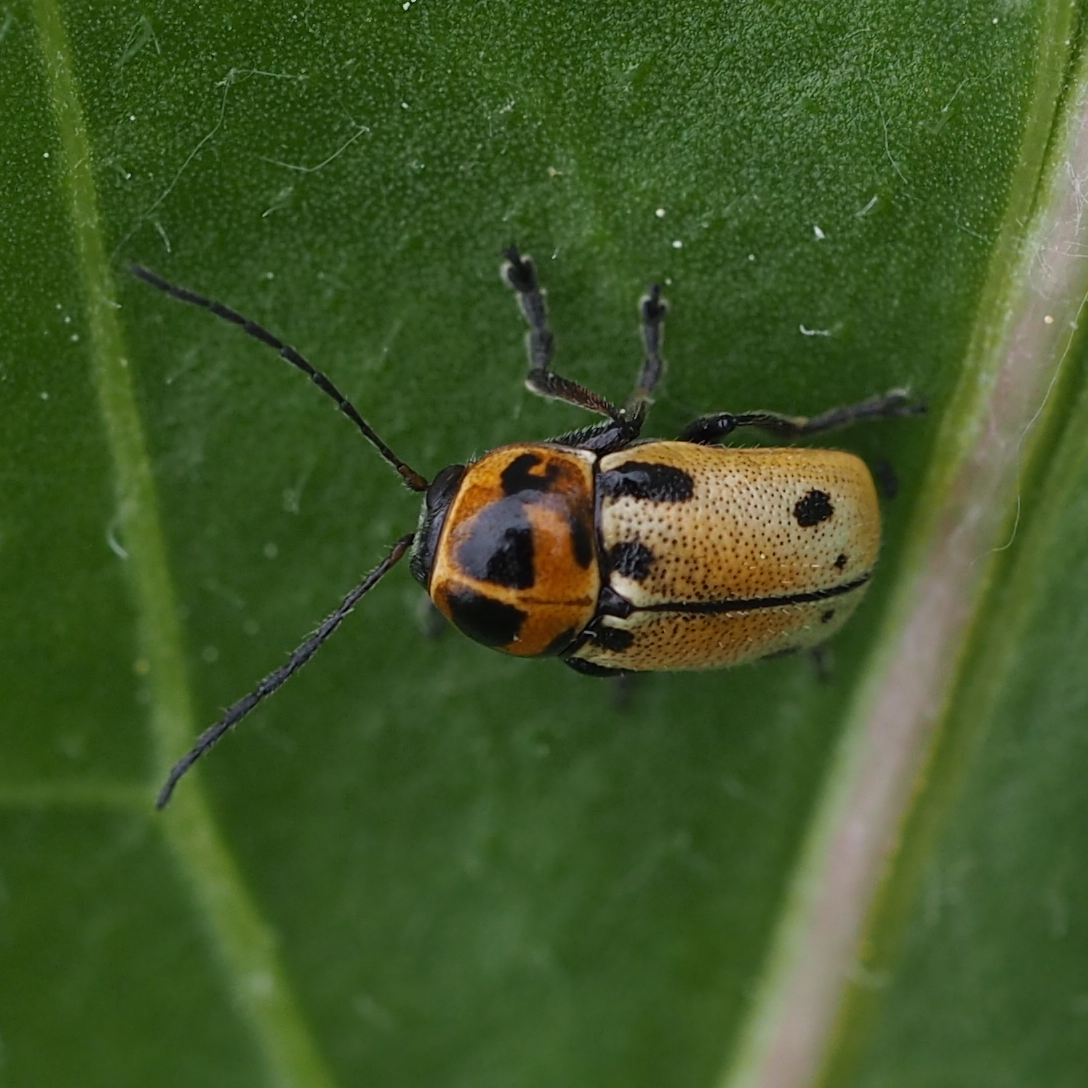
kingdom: Animalia
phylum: Arthropoda
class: Insecta
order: Coleoptera
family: Chrysomelidae
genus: Cryptocephalus
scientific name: Cryptocephalus quatuordecimmaculatus
